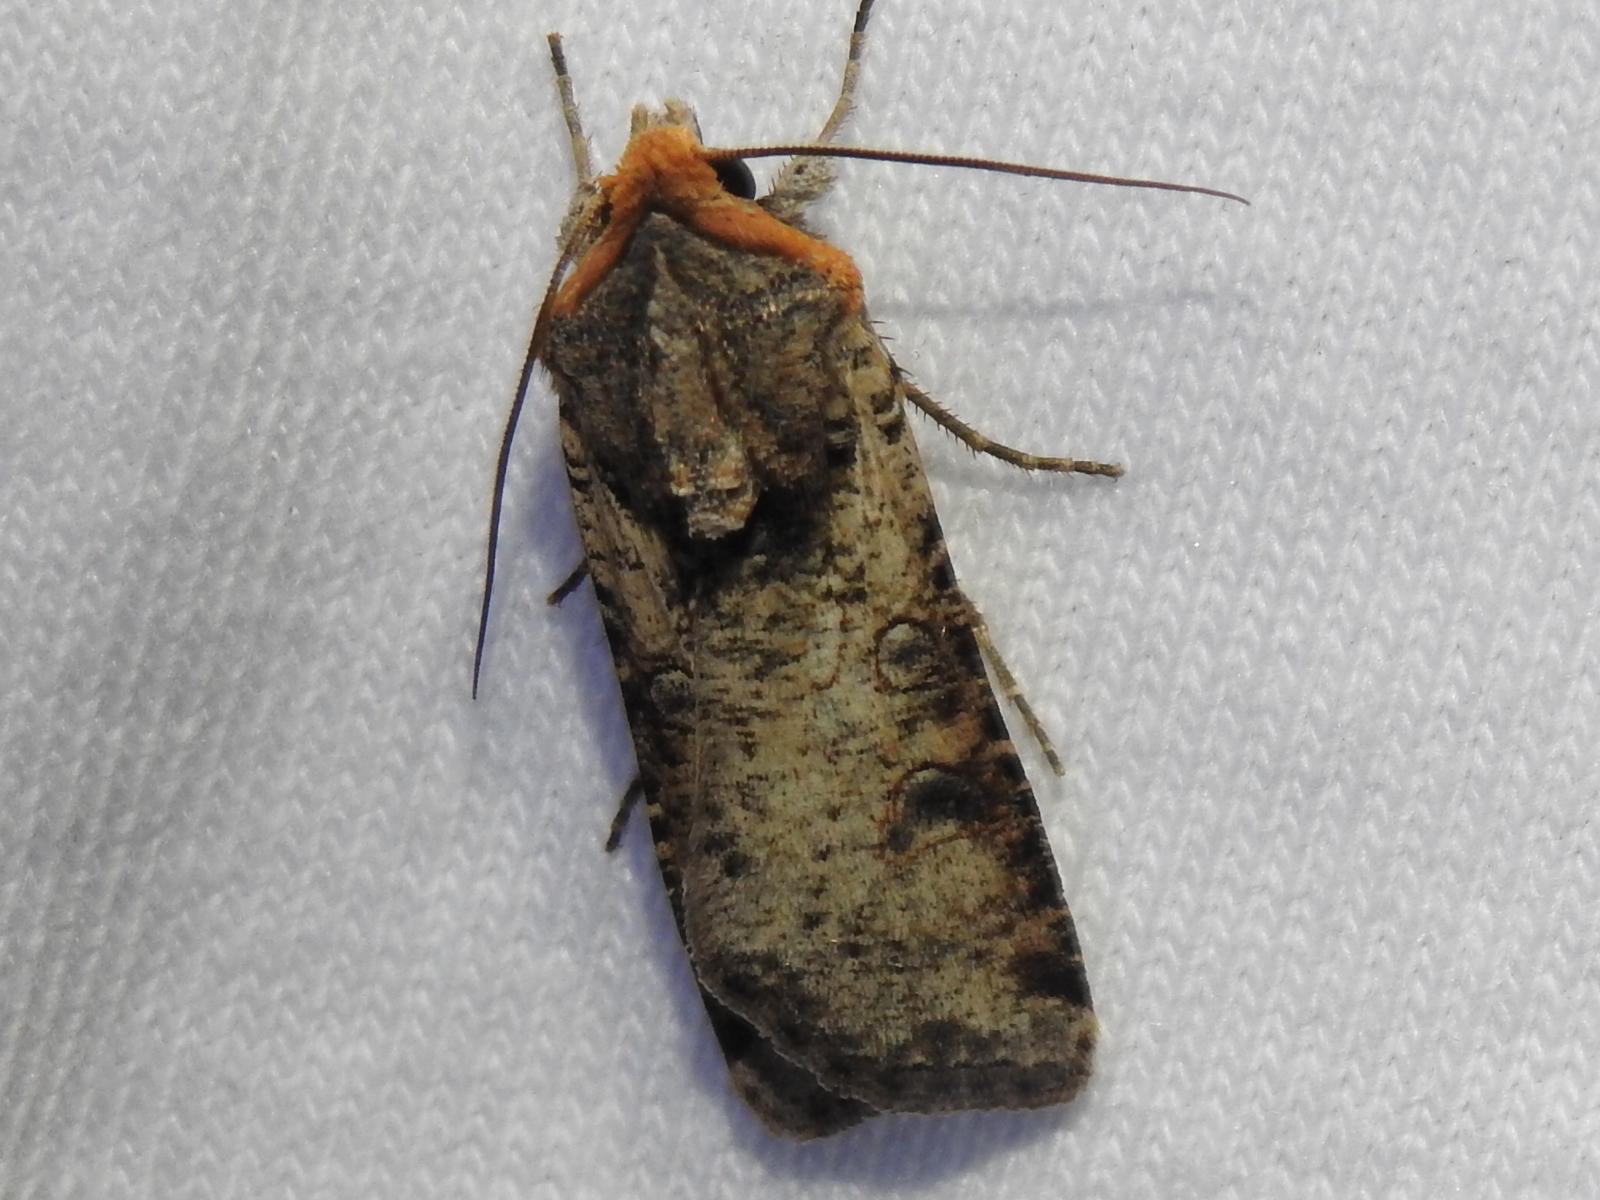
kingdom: Animalia
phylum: Arthropoda
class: Insecta
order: Lepidoptera
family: Noctuidae
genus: Hemieuxoa
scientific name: Hemieuxoa rudens
